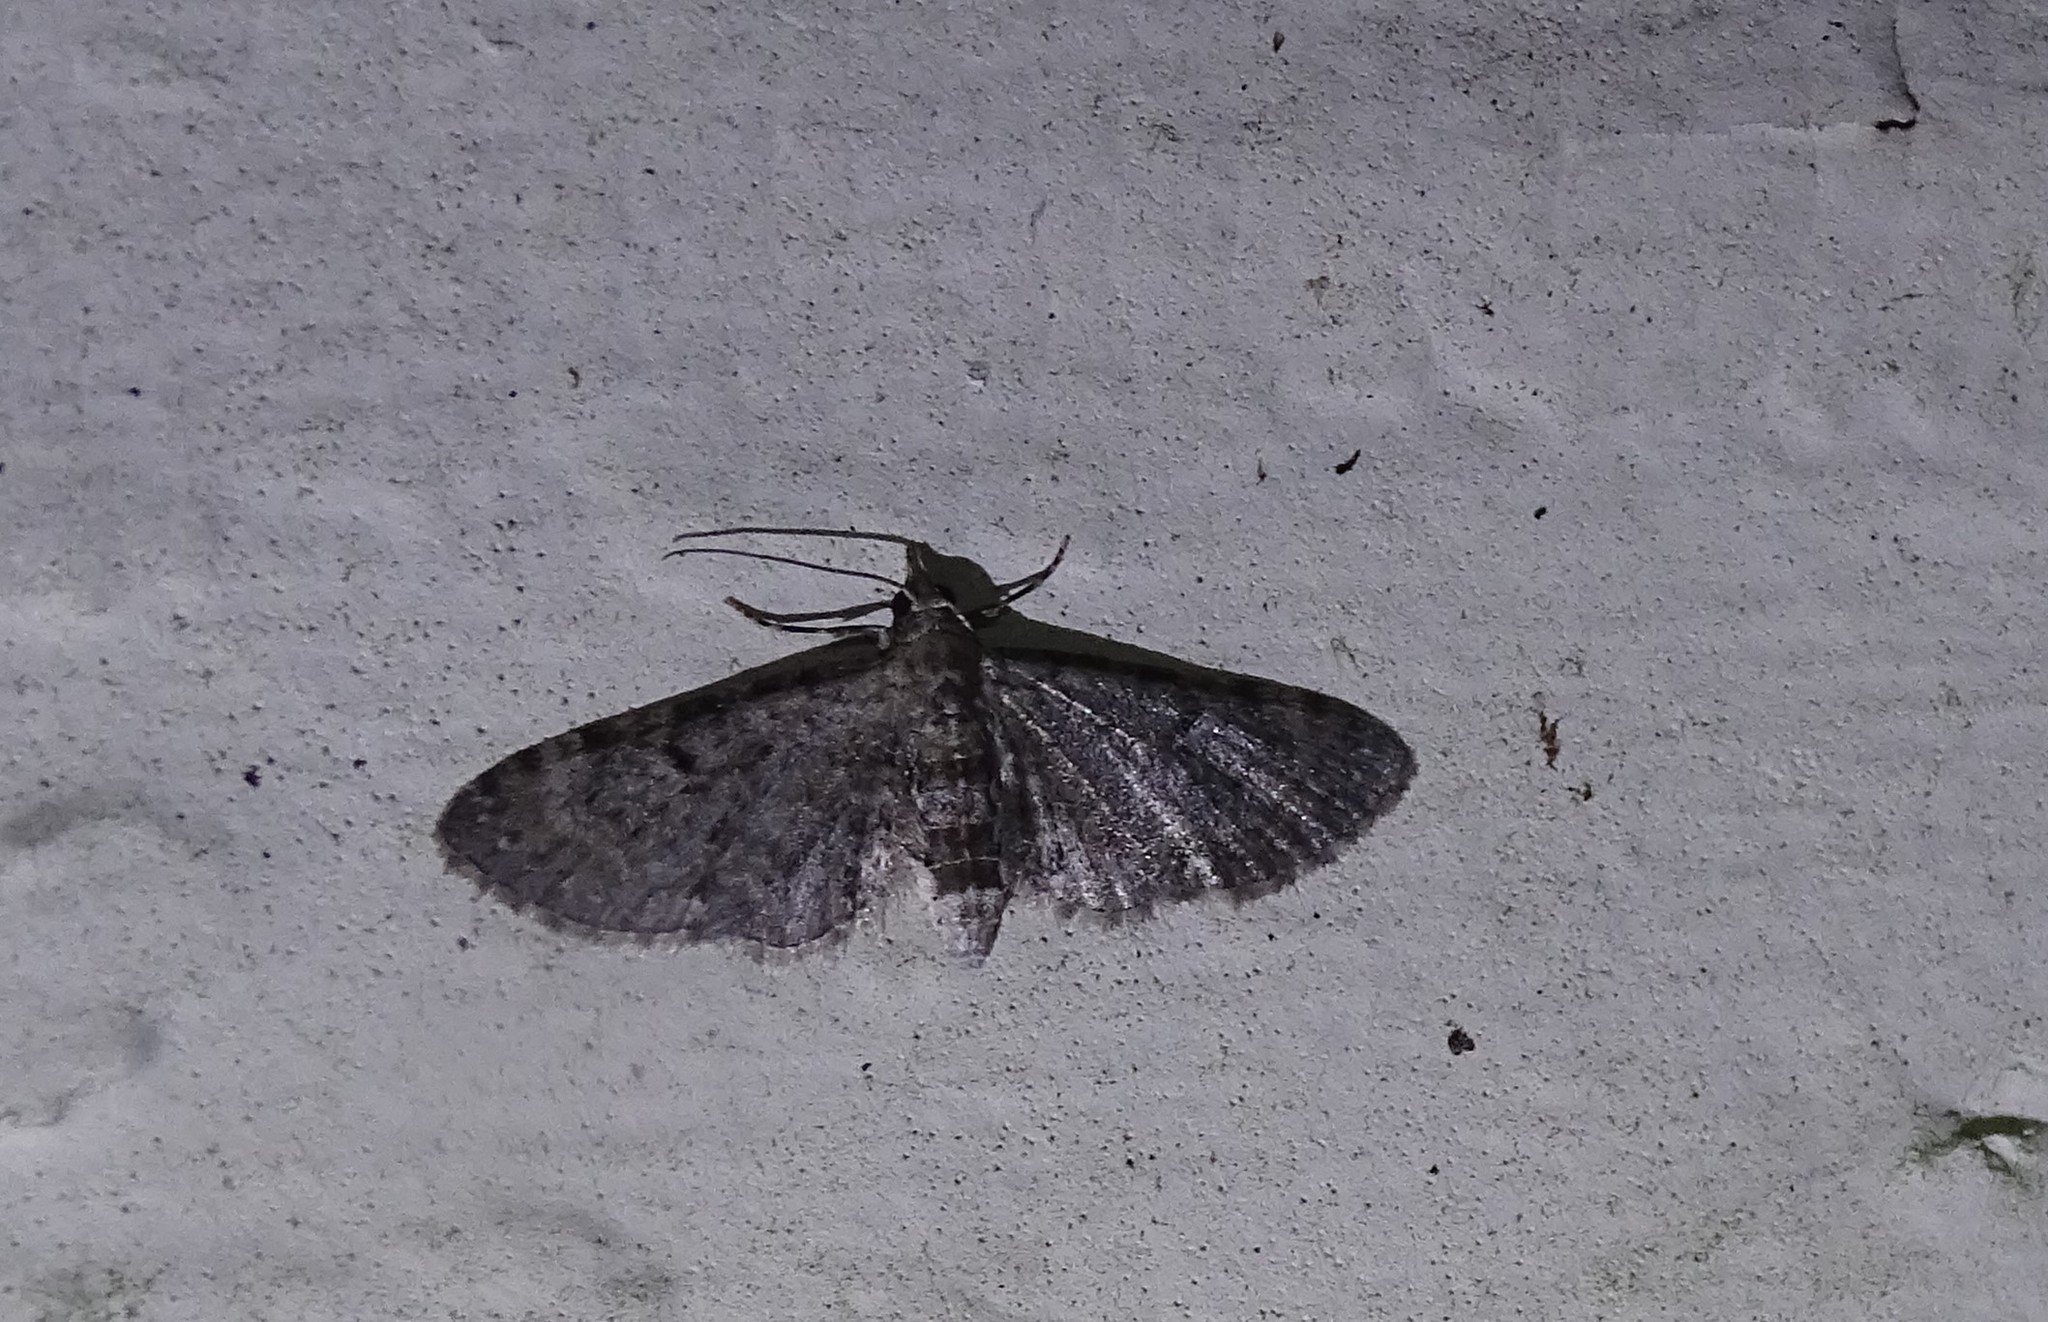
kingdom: Animalia
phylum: Arthropoda
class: Insecta
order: Lepidoptera
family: Geometridae
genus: Eupithecia
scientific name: Eupithecia miserulata
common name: Common eupithecia
